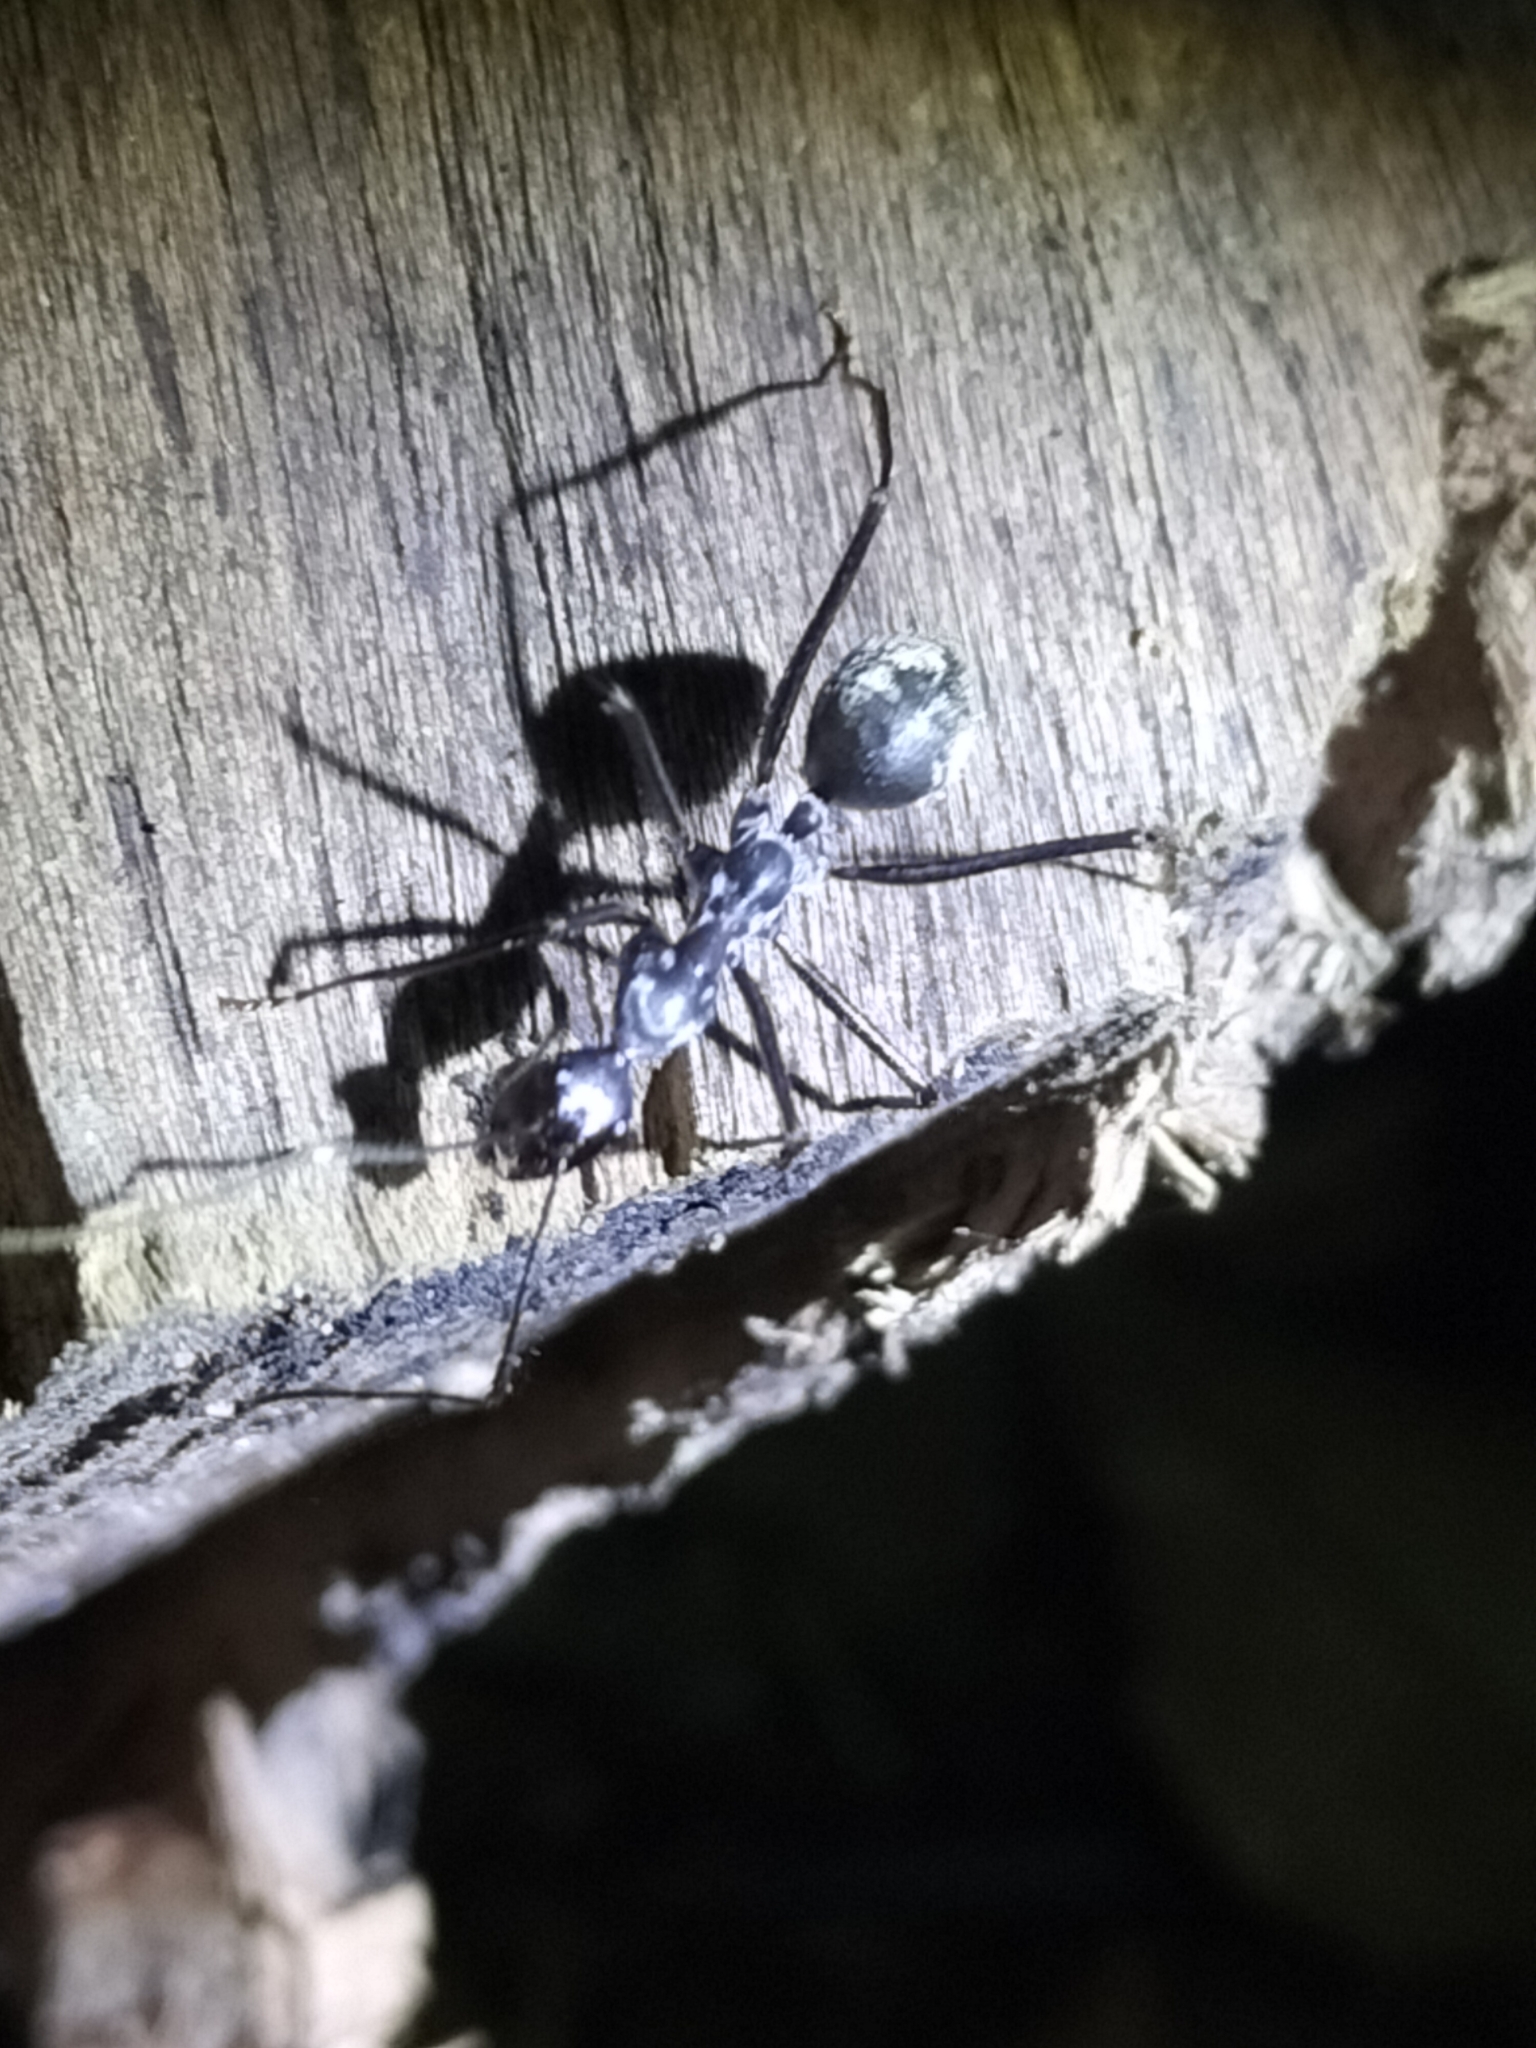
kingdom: Animalia
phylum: Arthropoda
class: Insecta
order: Hymenoptera
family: Formicidae
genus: Notostigma
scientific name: Notostigma carazzii
